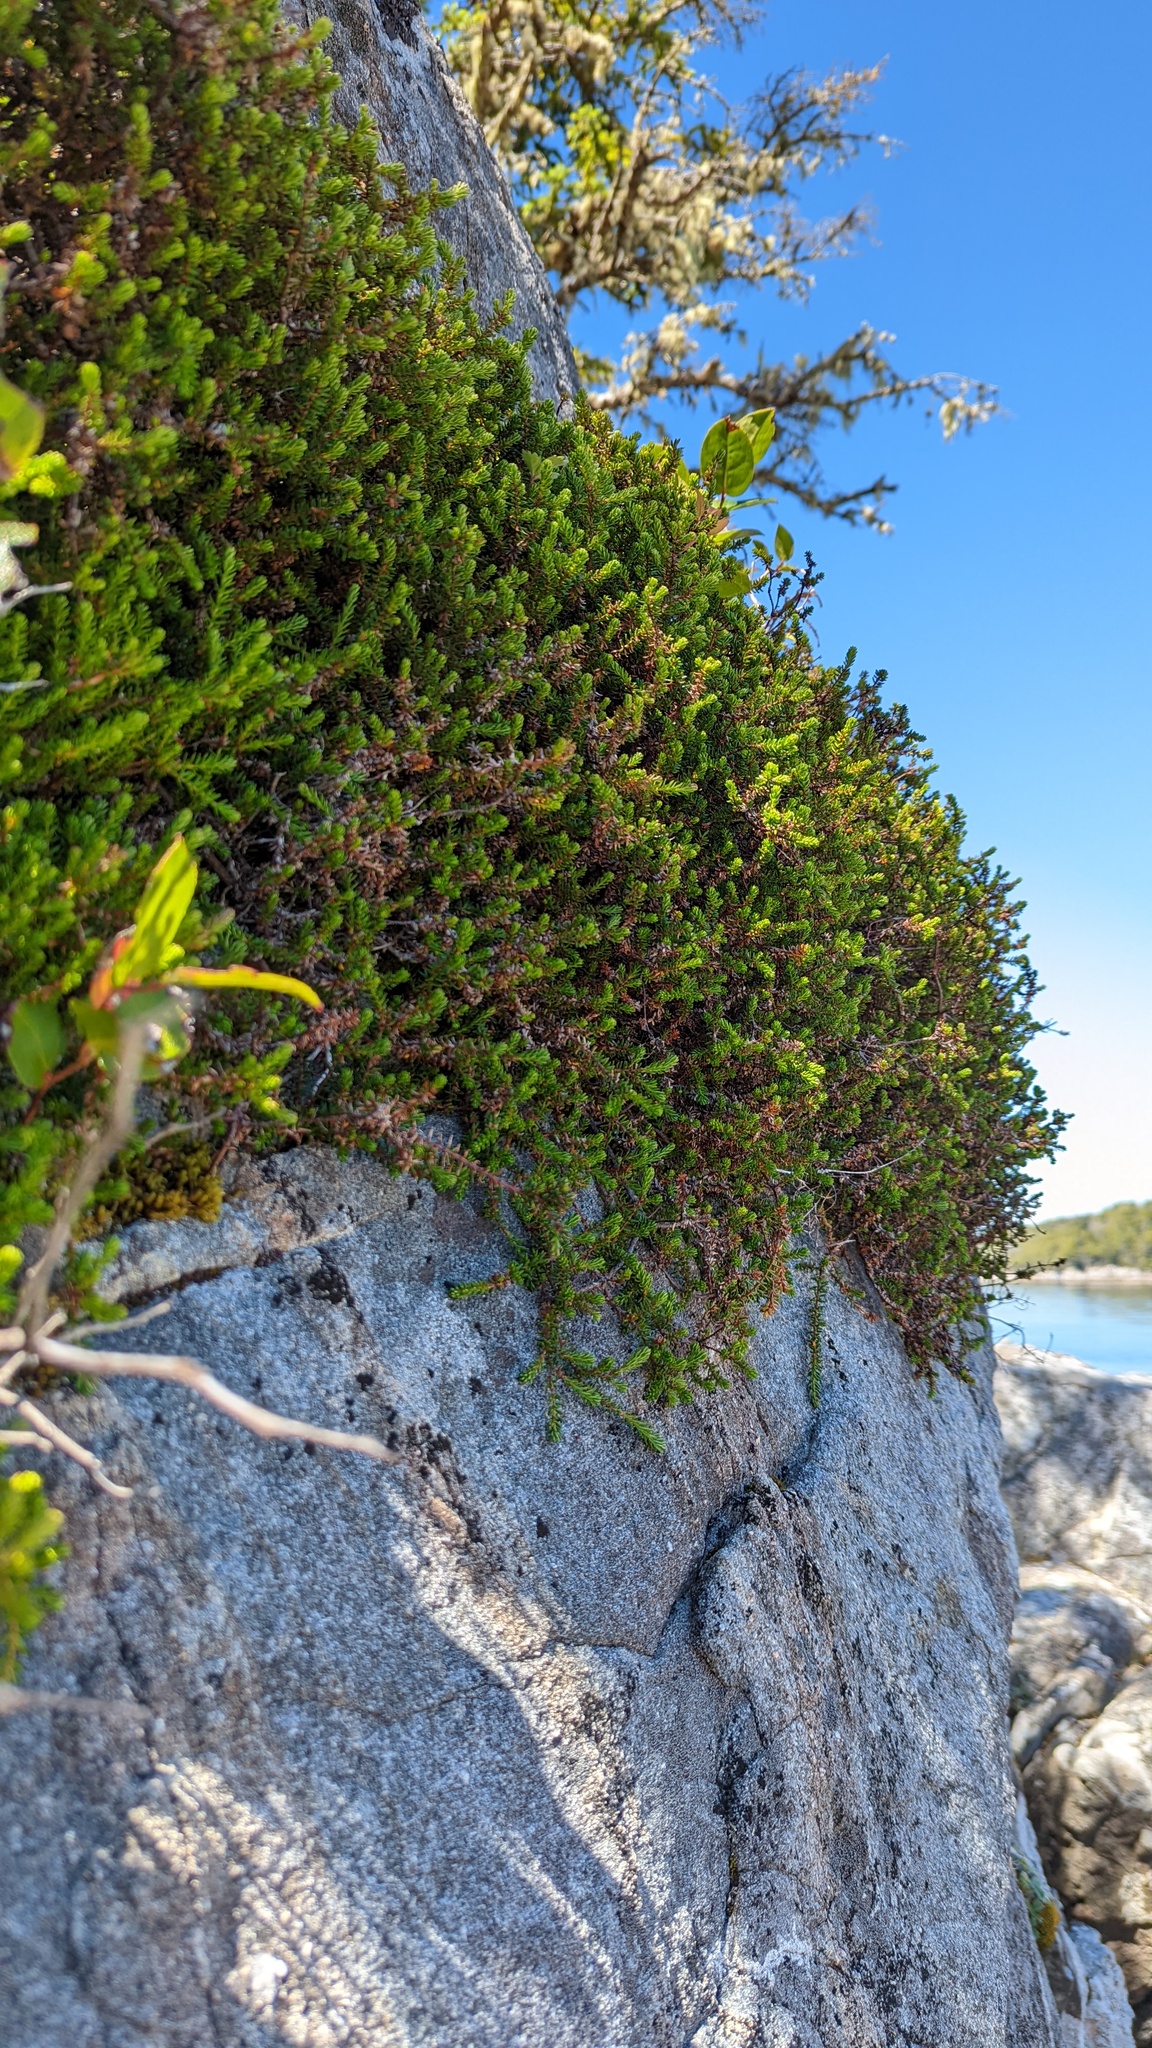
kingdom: Plantae
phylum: Tracheophyta
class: Magnoliopsida
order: Ericales
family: Ericaceae
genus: Empetrum
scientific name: Empetrum nigrum
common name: Black crowberry
